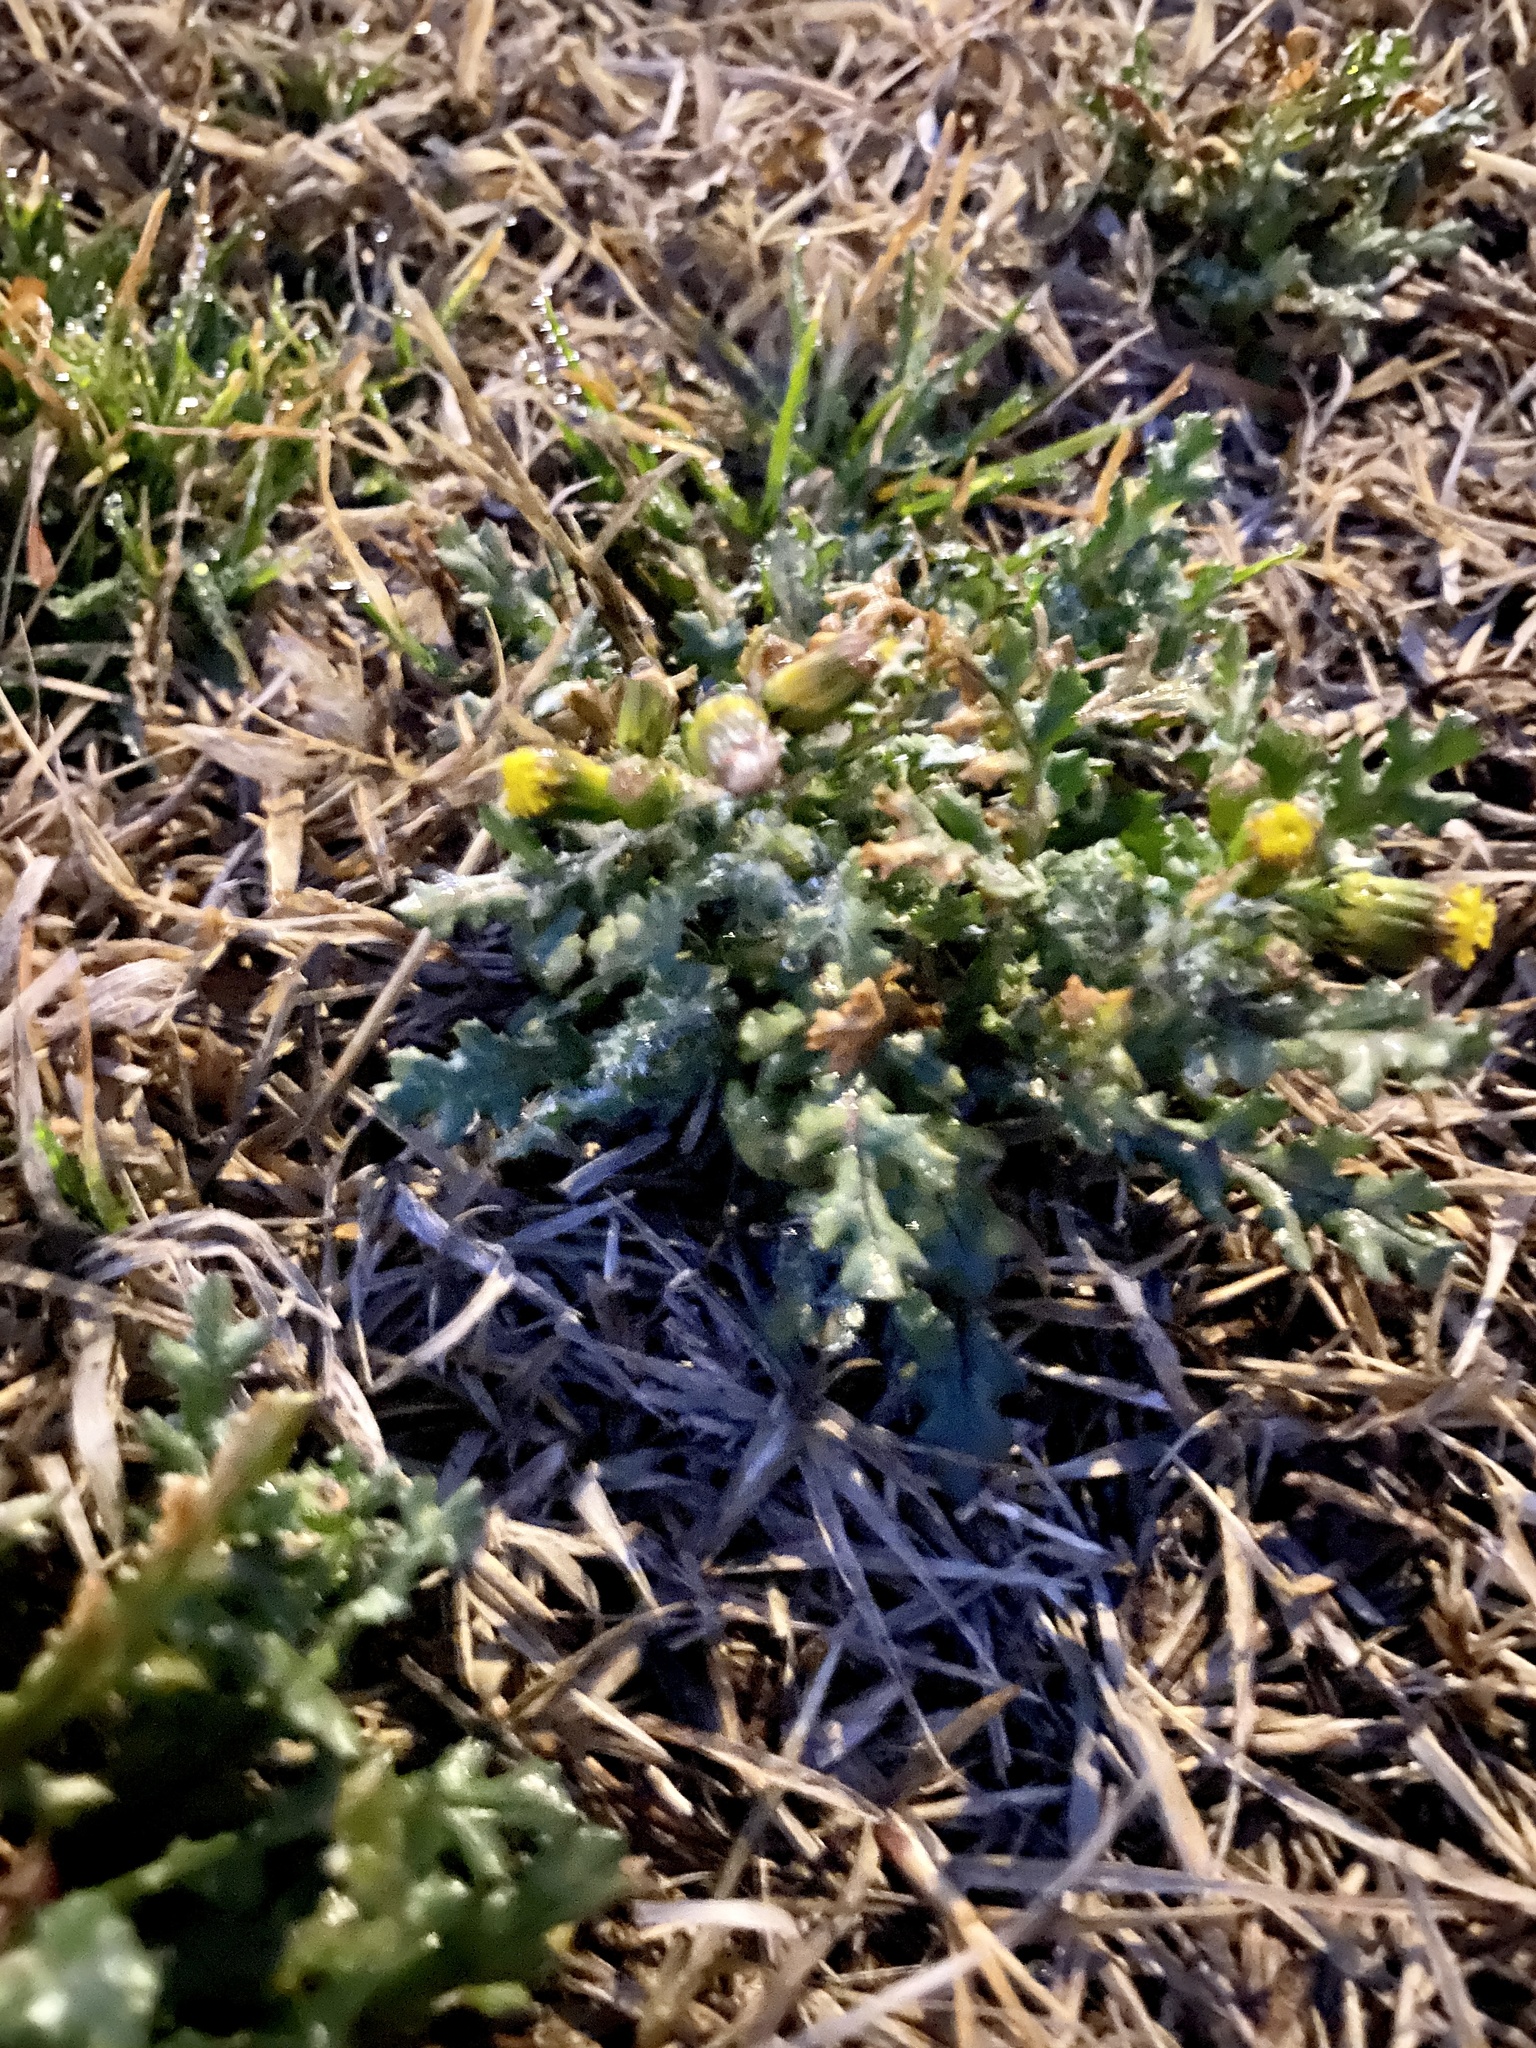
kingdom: Plantae
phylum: Tracheophyta
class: Magnoliopsida
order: Asterales
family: Asteraceae
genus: Senecio
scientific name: Senecio vulgaris
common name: Old-man-in-the-spring
